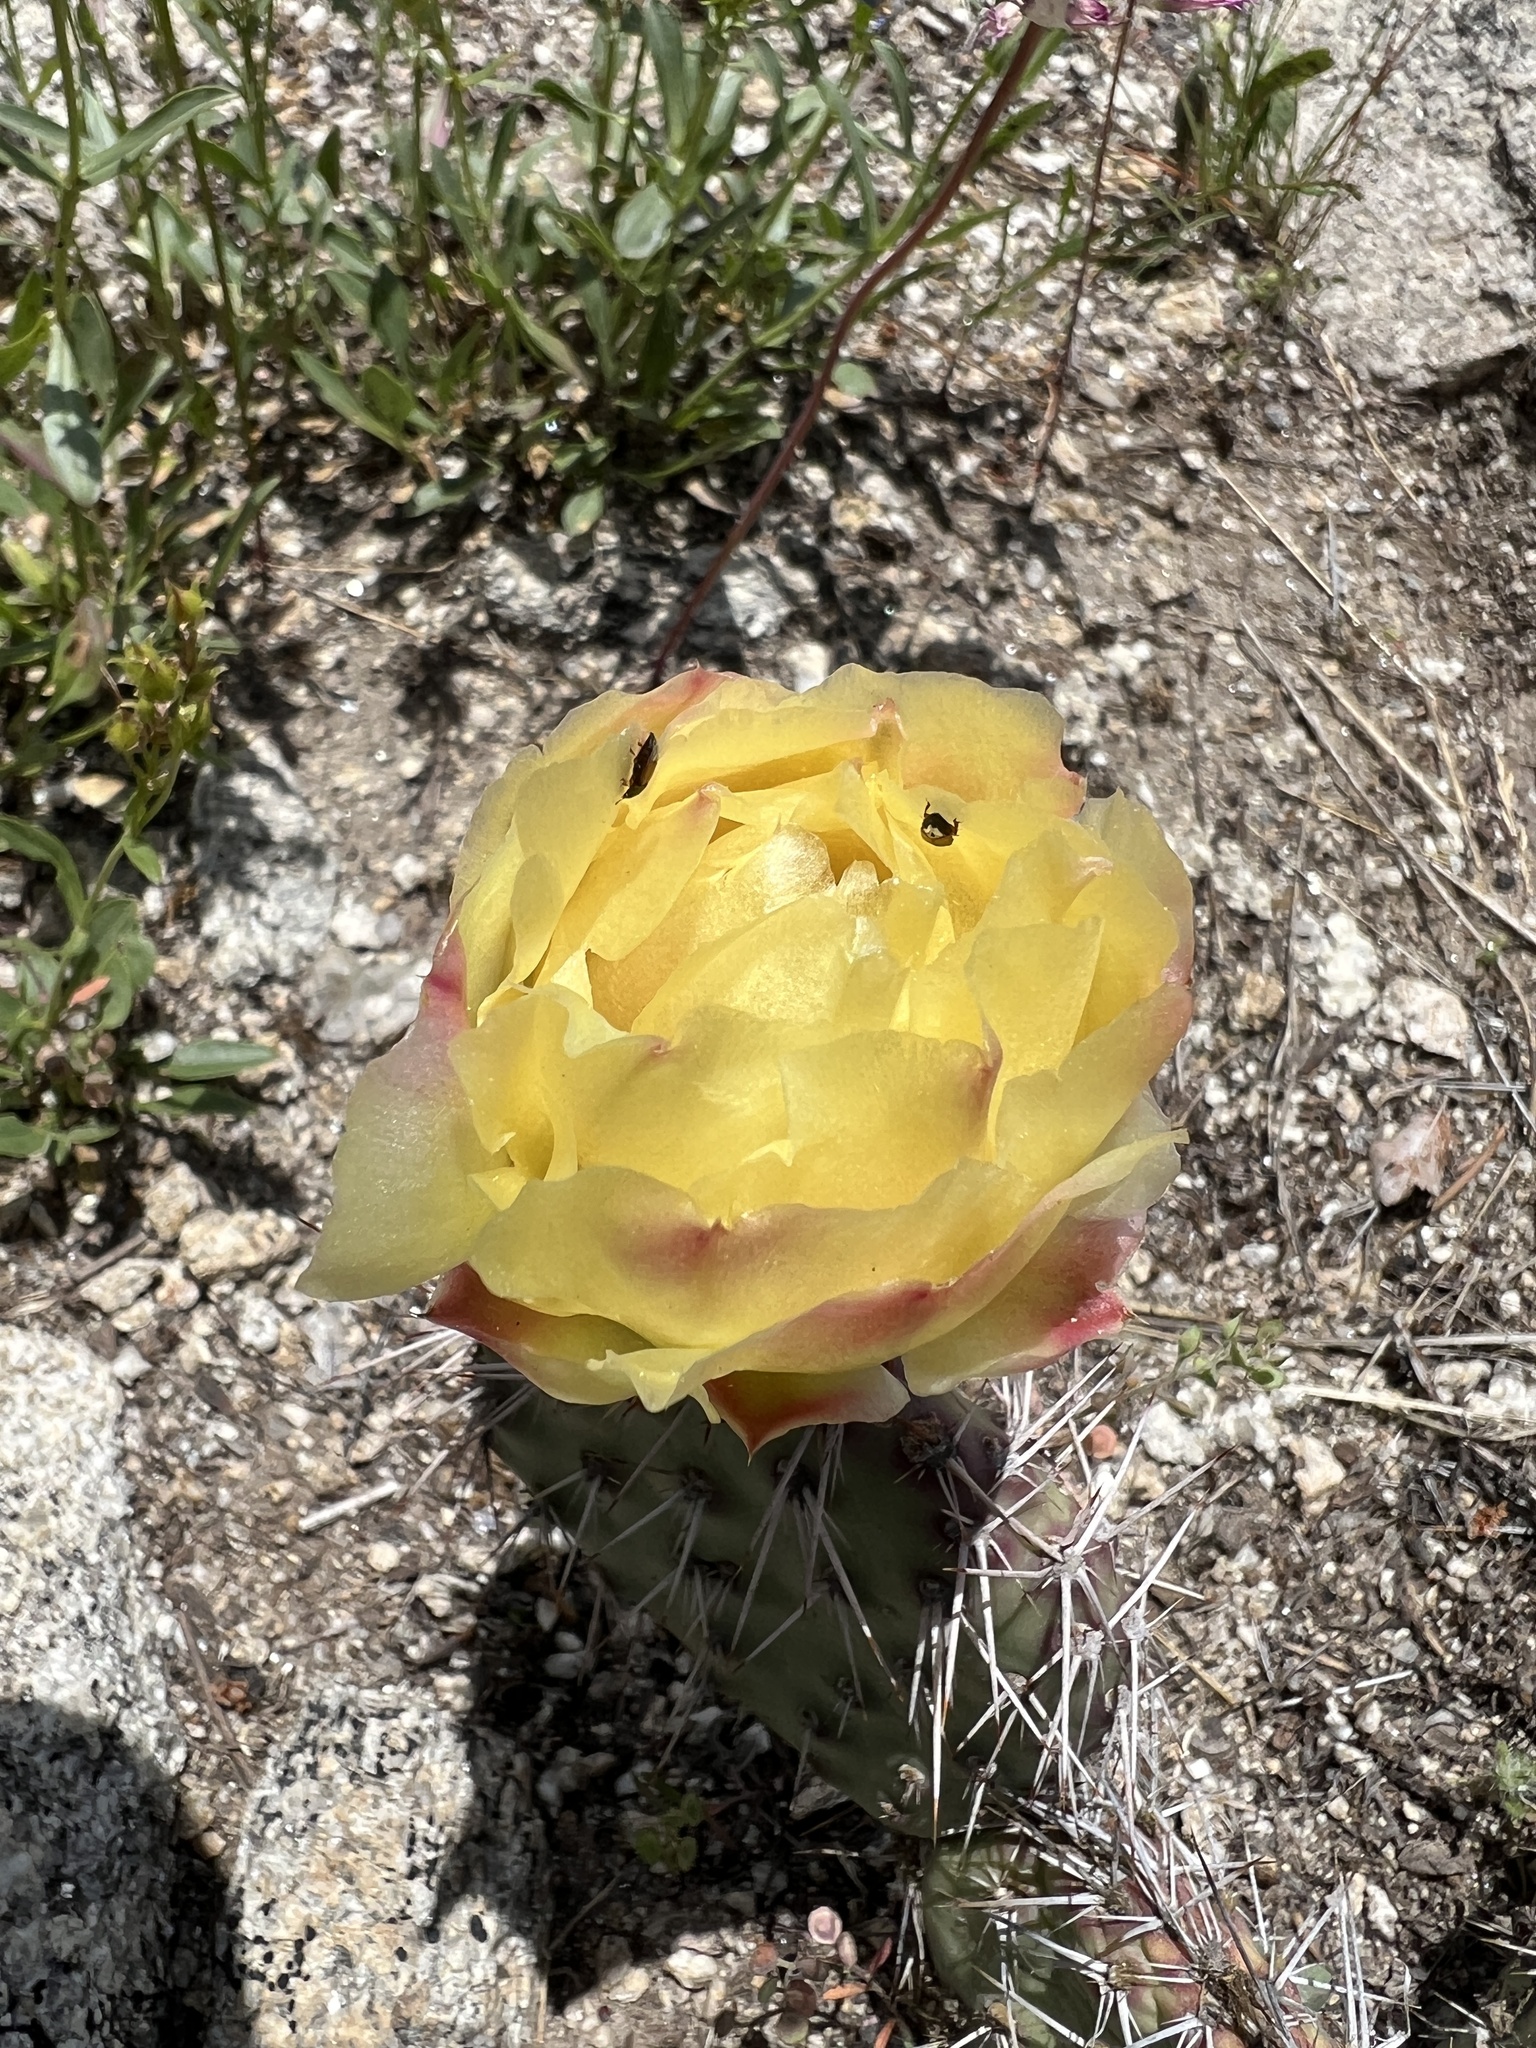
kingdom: Plantae
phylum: Tracheophyta
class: Magnoliopsida
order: Caryophyllales
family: Cactaceae
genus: Opuntia
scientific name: Opuntia polyacantha
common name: Plains prickly-pear
